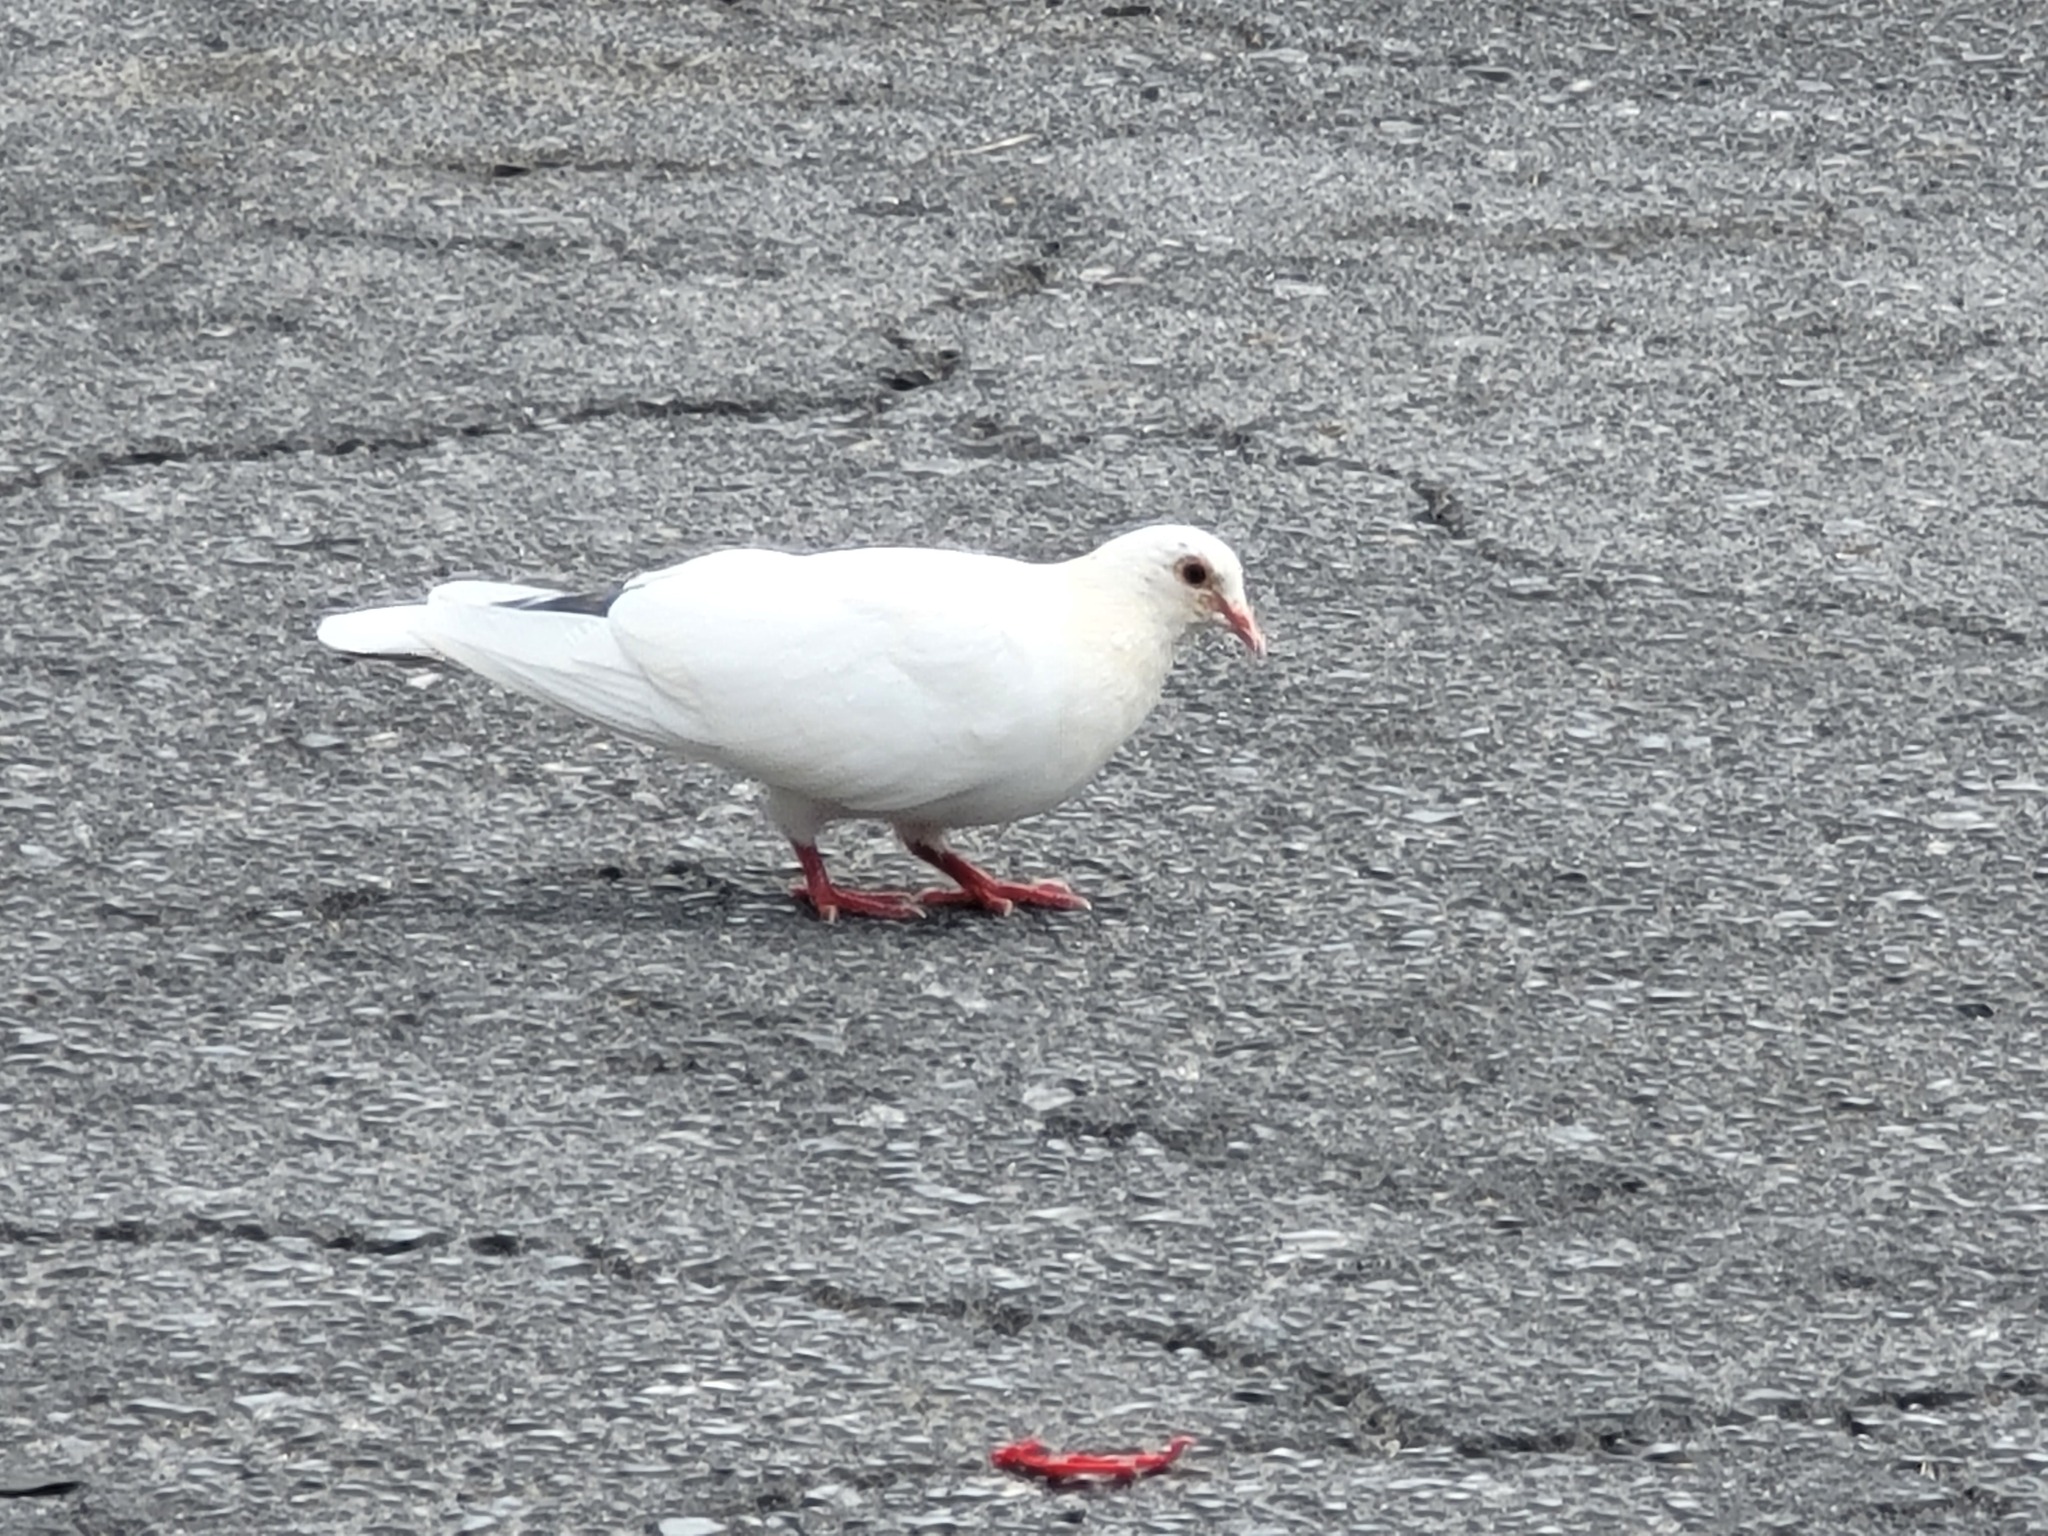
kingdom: Animalia
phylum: Chordata
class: Aves
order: Columbiformes
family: Columbidae
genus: Columba
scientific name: Columba livia
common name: Rock pigeon
